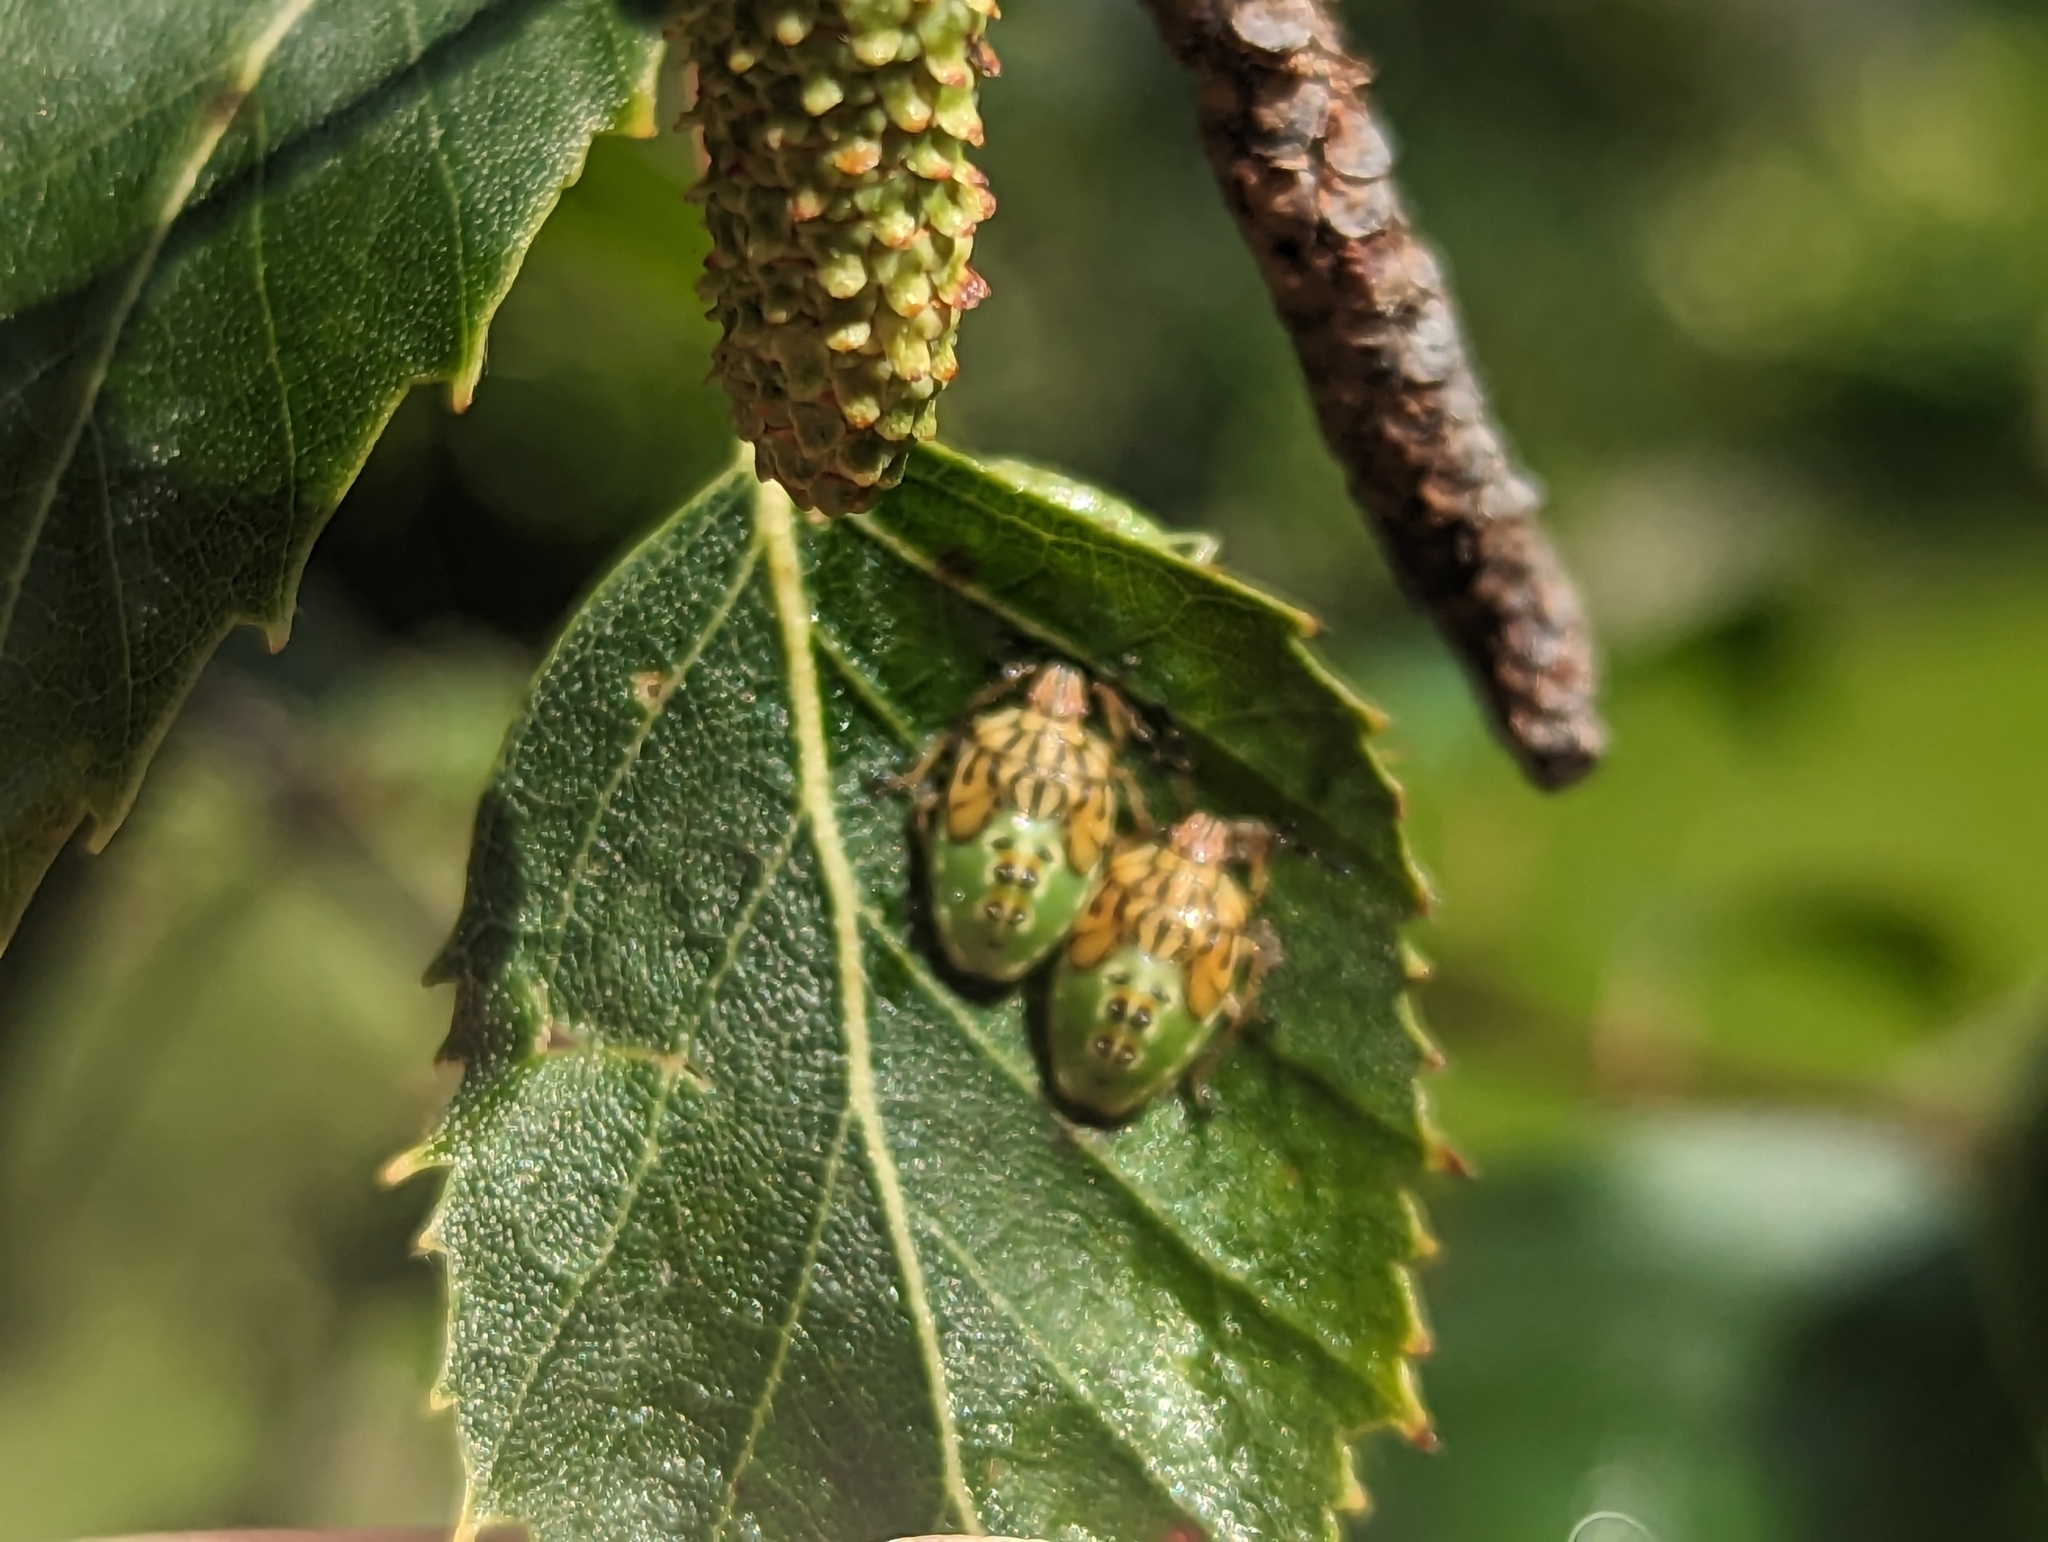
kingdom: Animalia
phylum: Arthropoda
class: Insecta
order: Hemiptera
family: Acanthosomatidae
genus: Elasmucha
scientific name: Elasmucha grisea
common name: Parent bug
